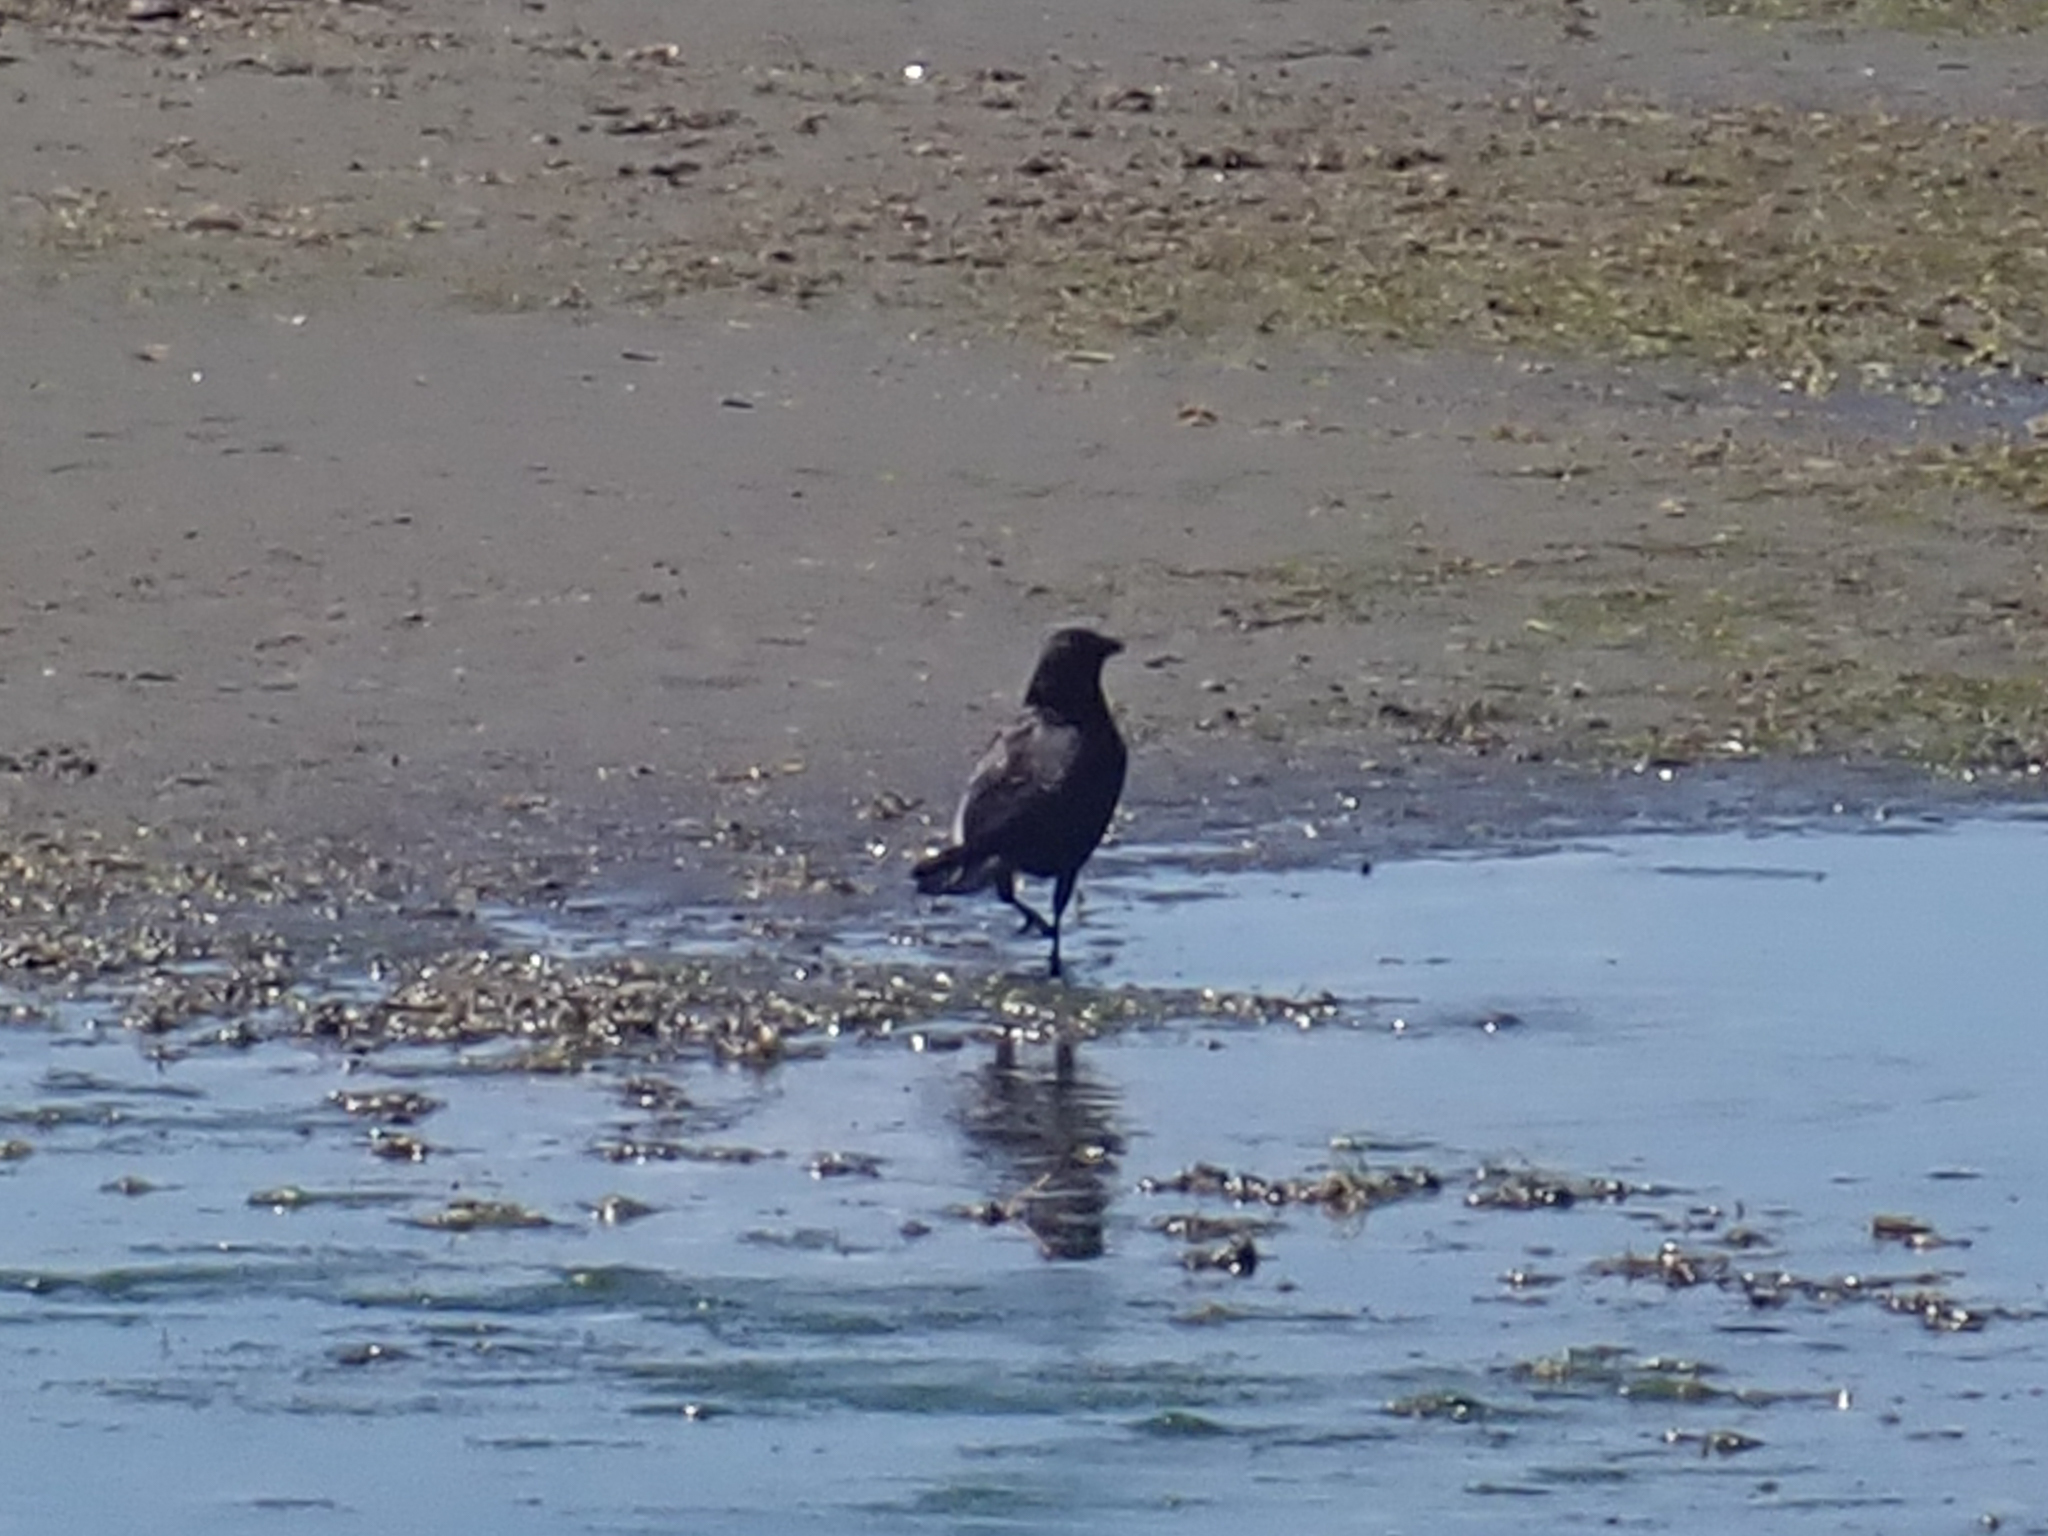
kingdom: Animalia
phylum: Chordata
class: Aves
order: Passeriformes
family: Corvidae
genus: Corvus
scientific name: Corvus brachyrhynchos
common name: American crow
